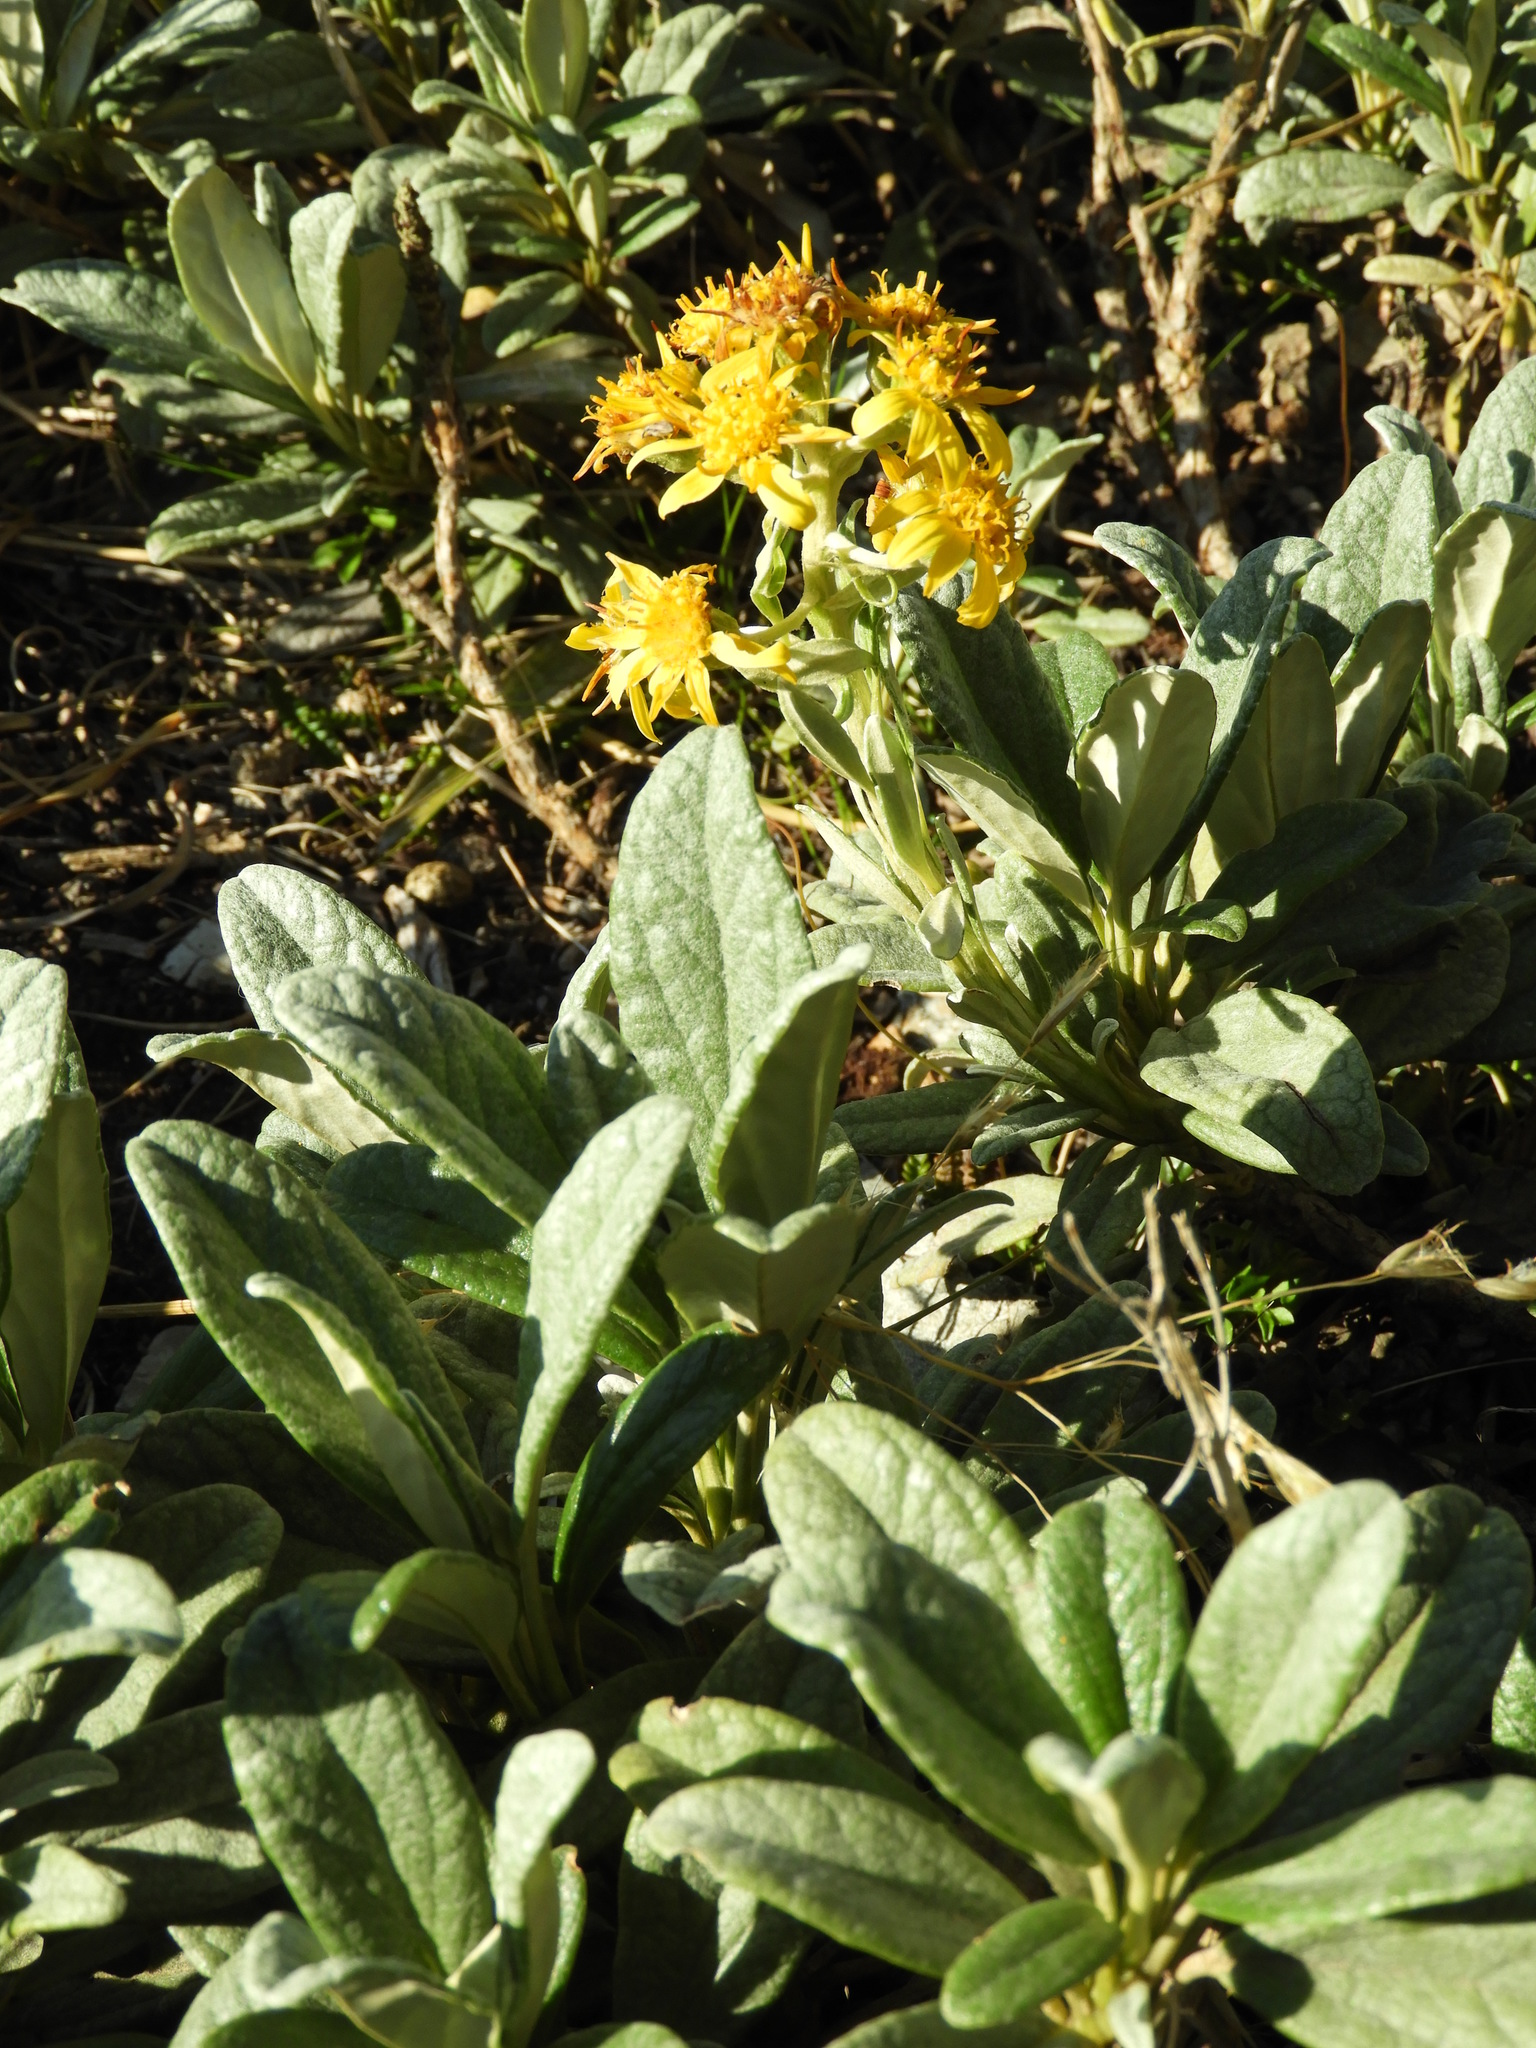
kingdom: Plantae
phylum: Tracheophyta
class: Magnoliopsida
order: Asterales
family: Asteraceae
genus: Brachyglottis
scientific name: Brachyglottis revoluta
